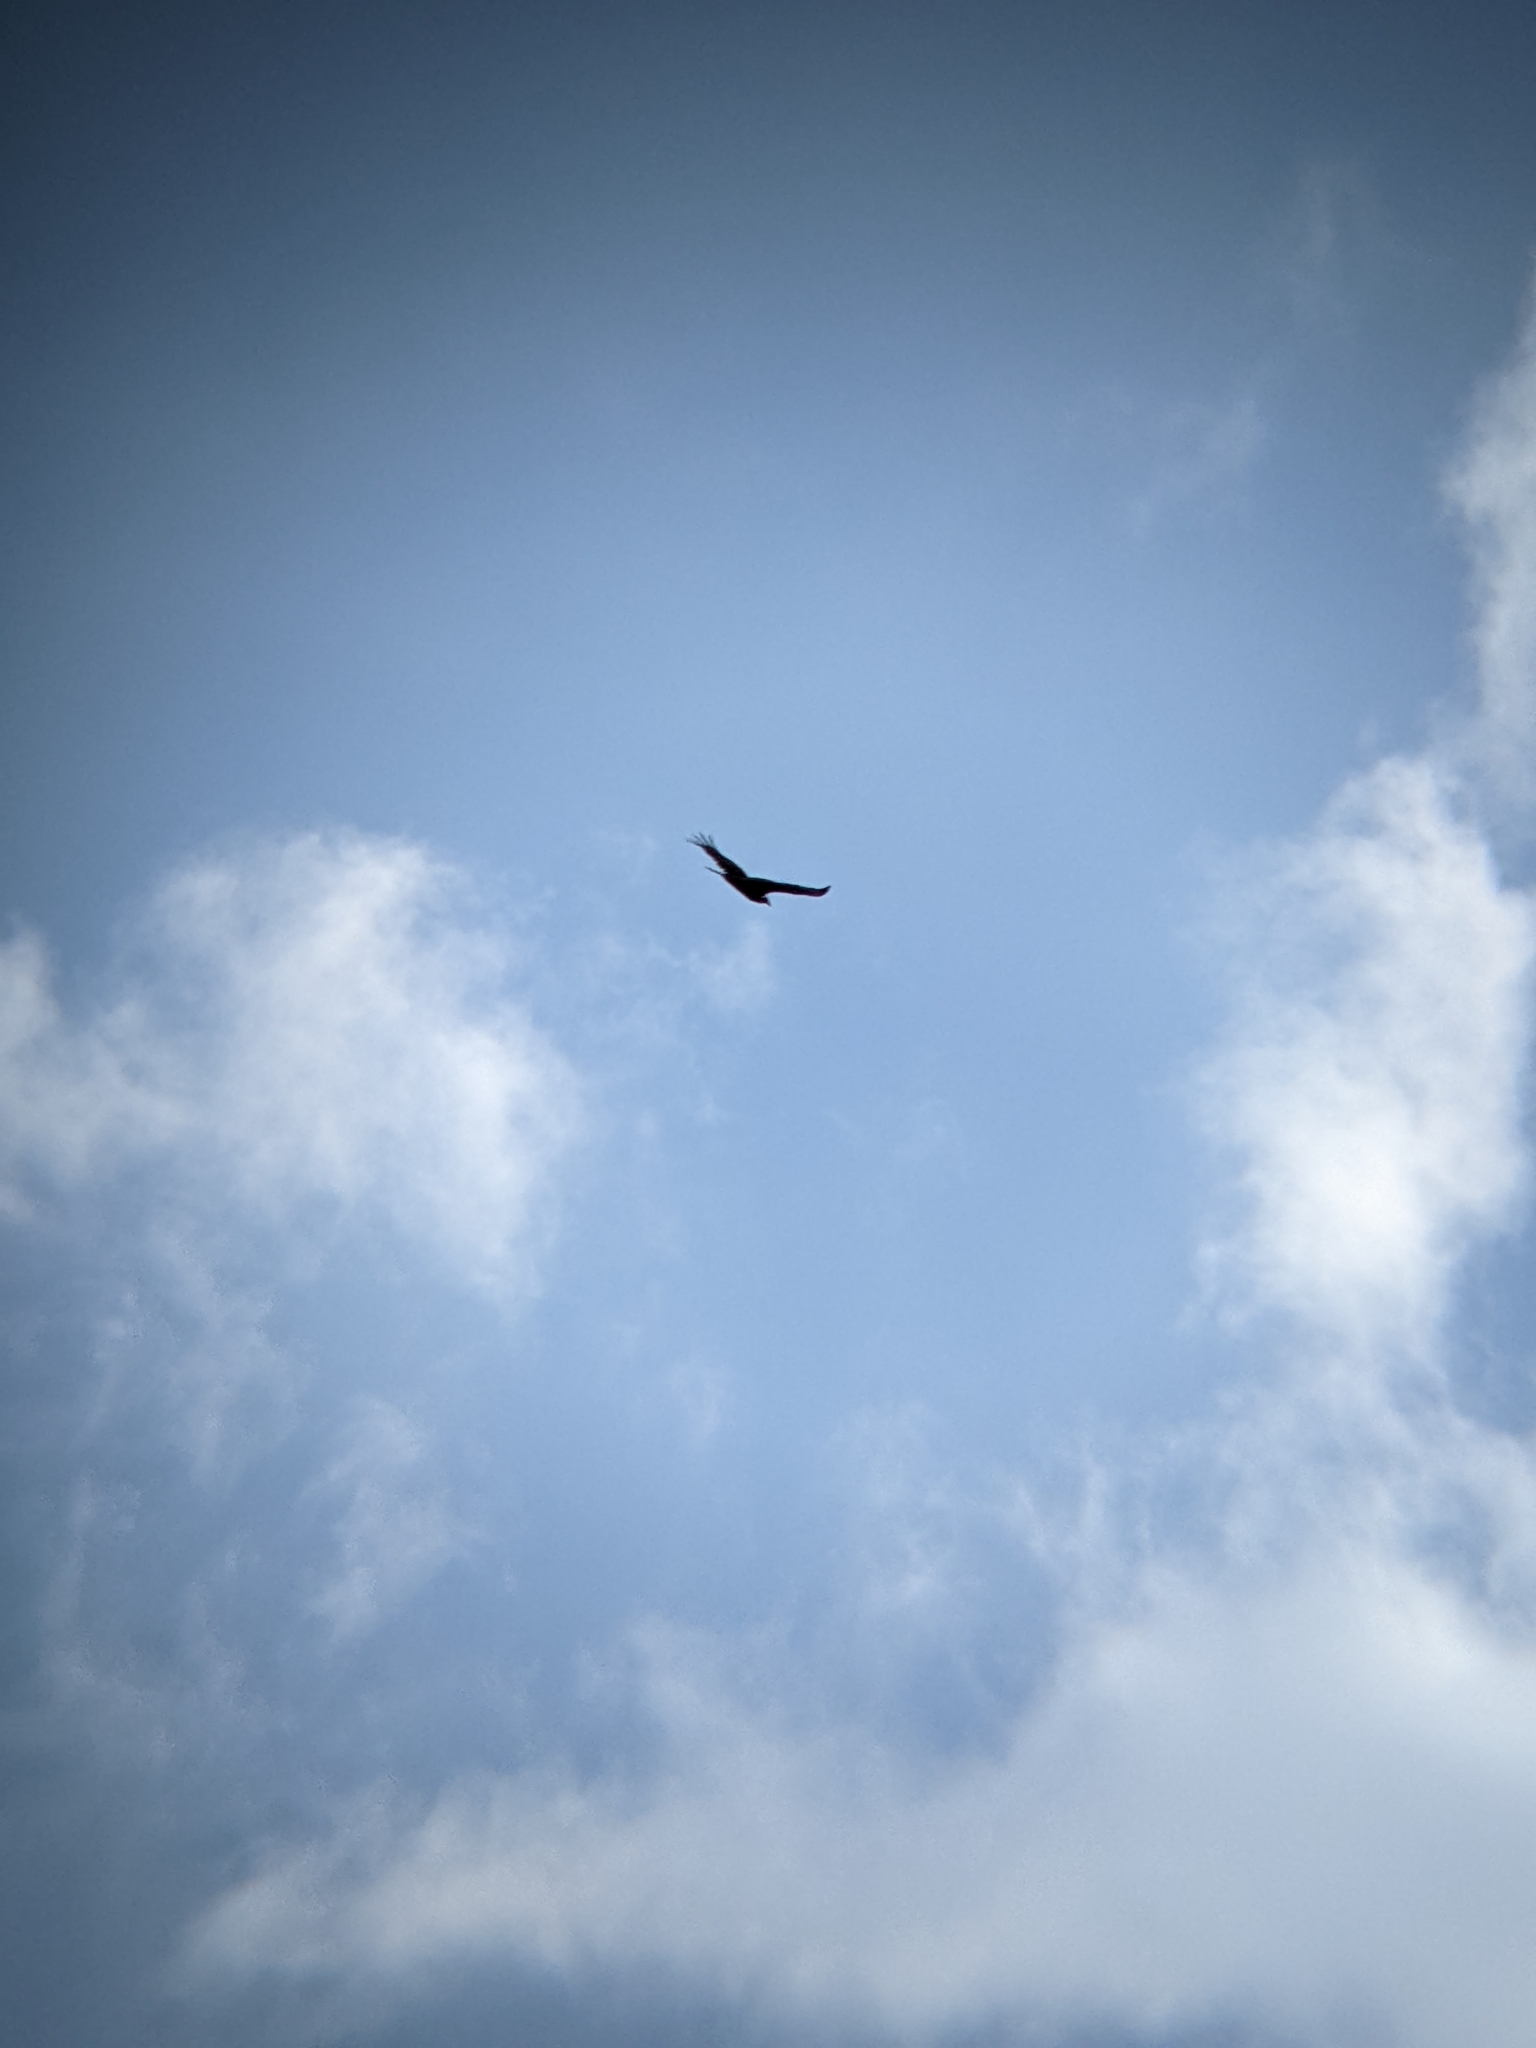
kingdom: Animalia
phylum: Chordata
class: Aves
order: Accipitriformes
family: Cathartidae
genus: Cathartes
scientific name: Cathartes aura
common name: Turkey vulture
